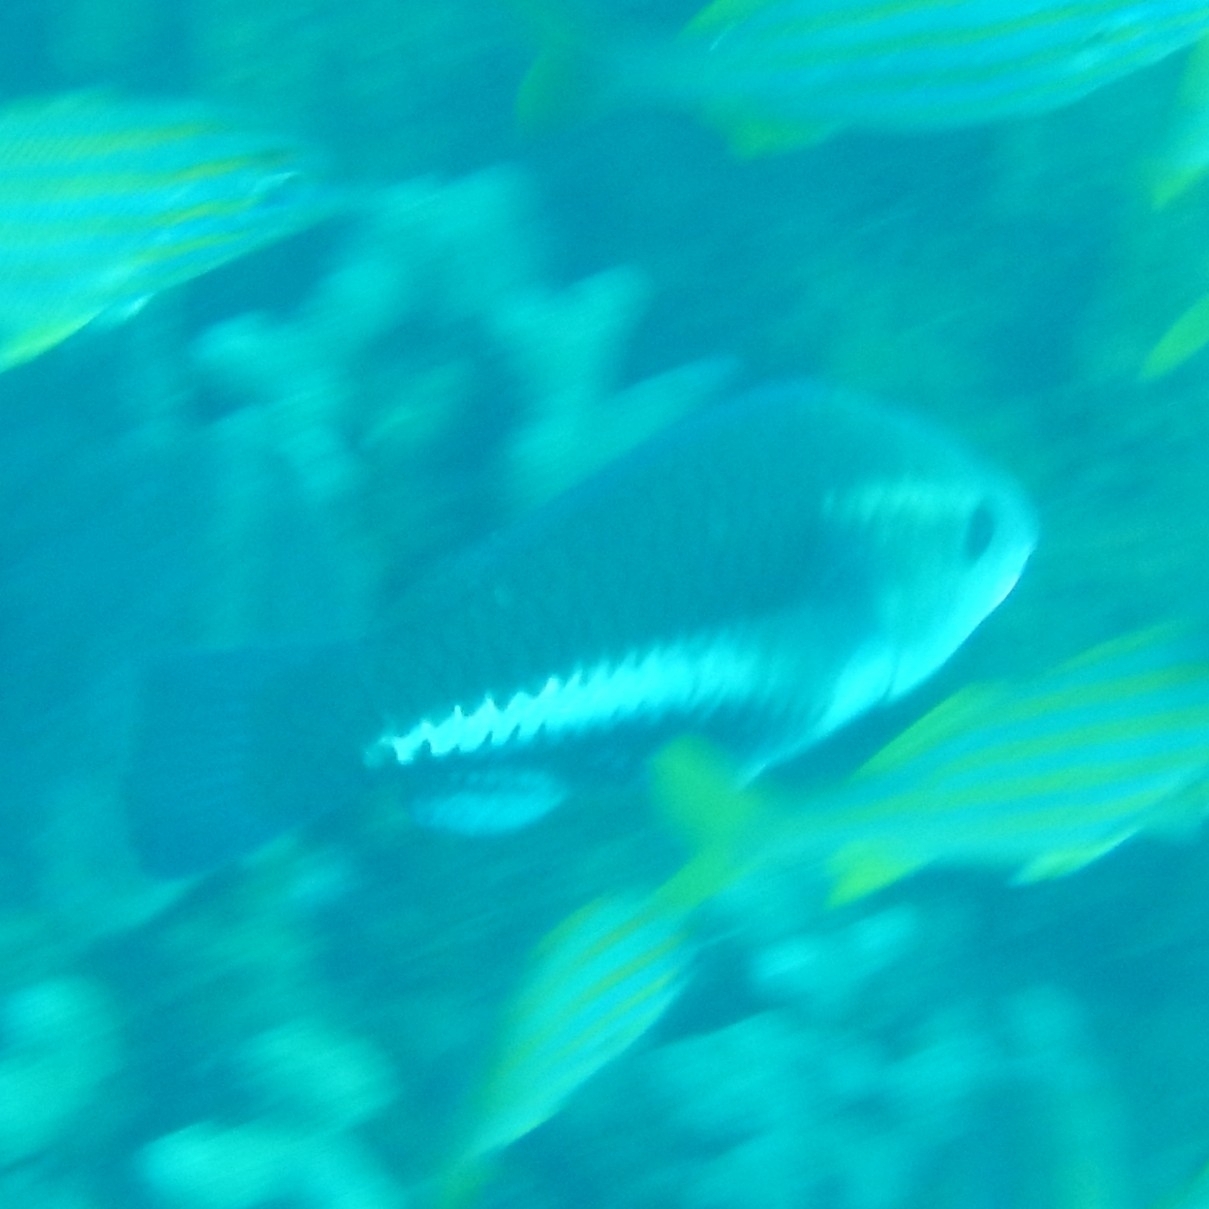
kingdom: Animalia
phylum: Chordata
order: Perciformes
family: Scaridae
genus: Scarus
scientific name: Scarus vetula
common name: Queen parrotfish
